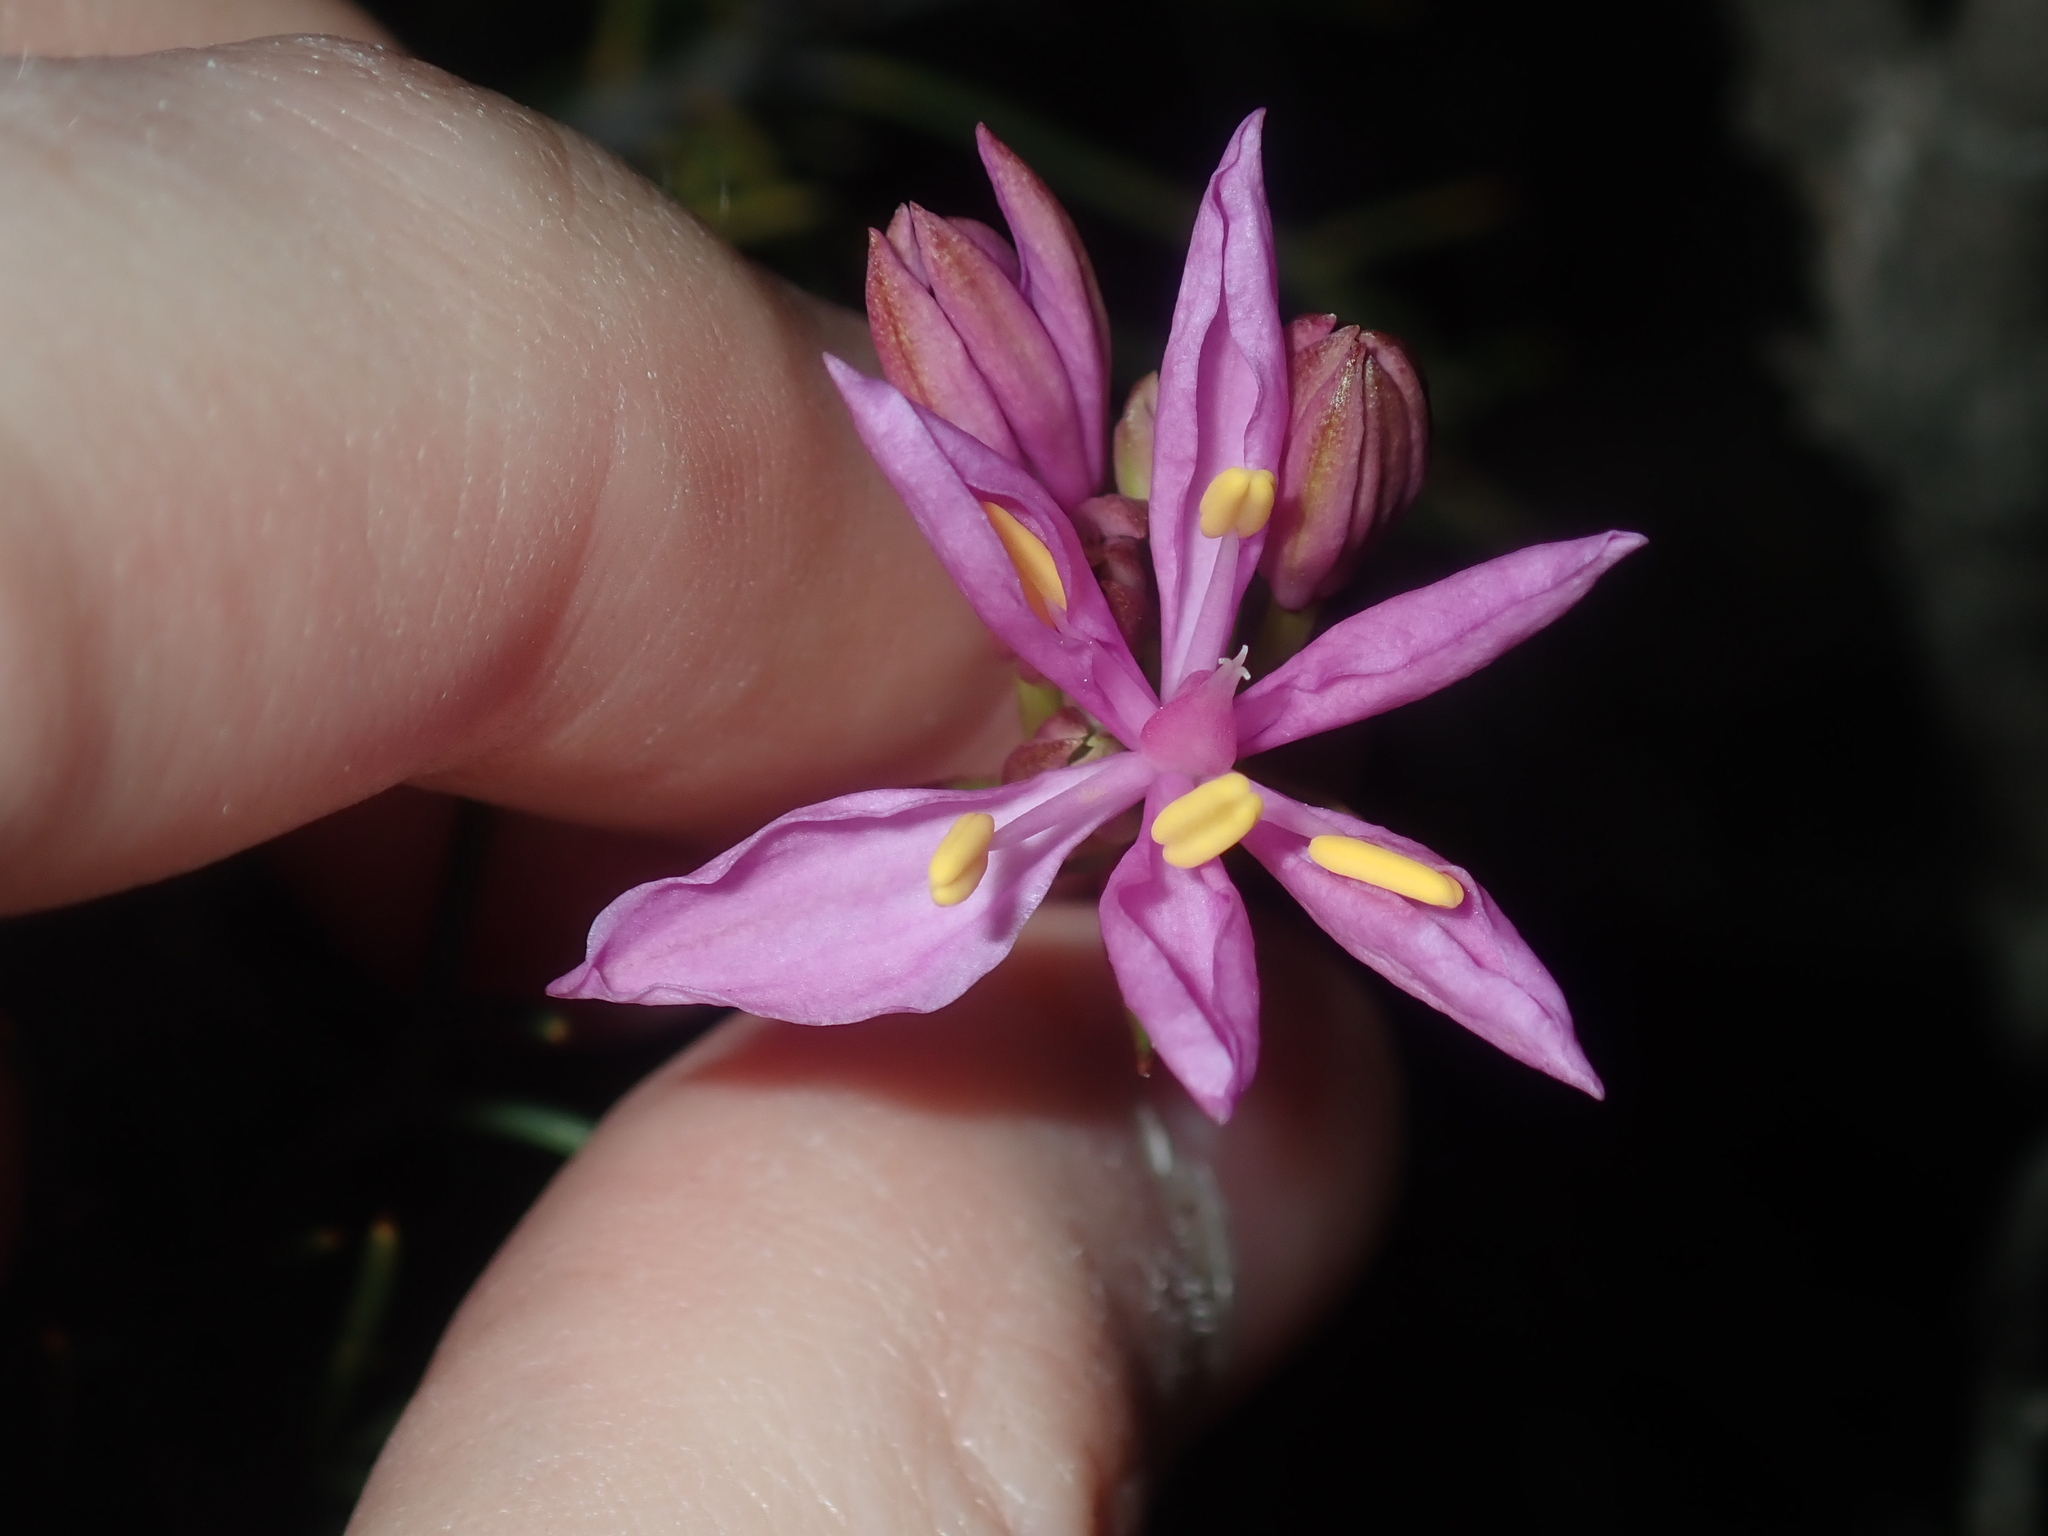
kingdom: Plantae
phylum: Tracheophyta
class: Liliopsida
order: Liliales
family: Colchicaceae
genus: Burchardia
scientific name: Burchardia rosea
